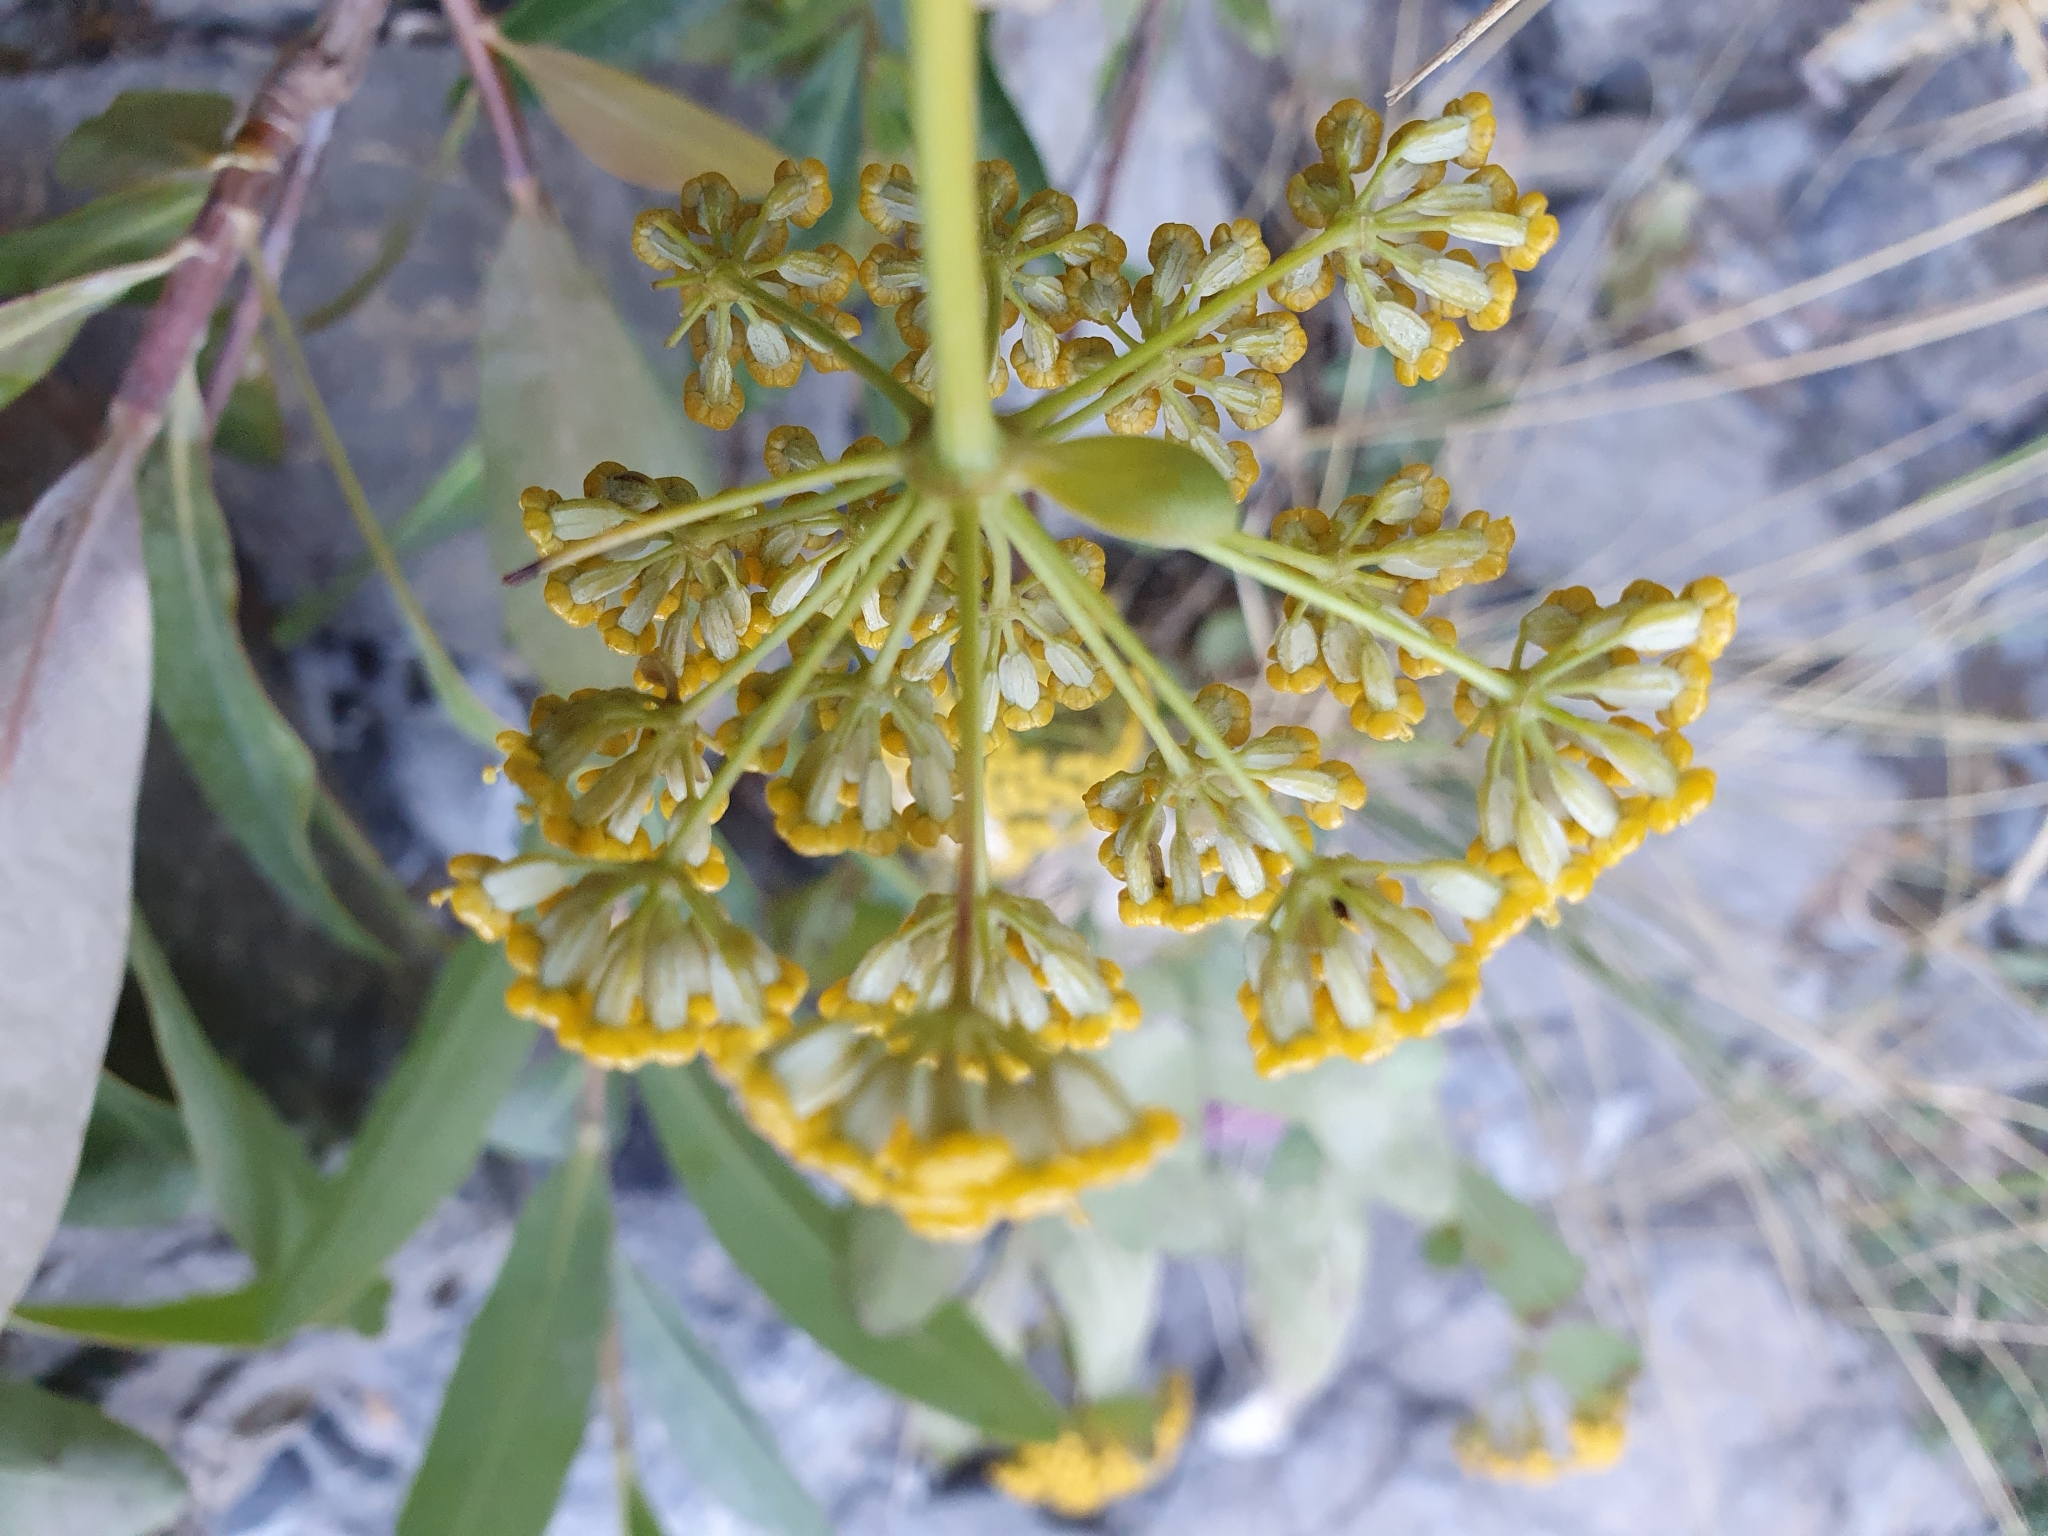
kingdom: Plantae
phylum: Tracheophyta
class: Magnoliopsida
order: Apiales
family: Apiaceae
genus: Bupleurum
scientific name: Bupleurum fruticosum
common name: Shrubby hare's-ear
